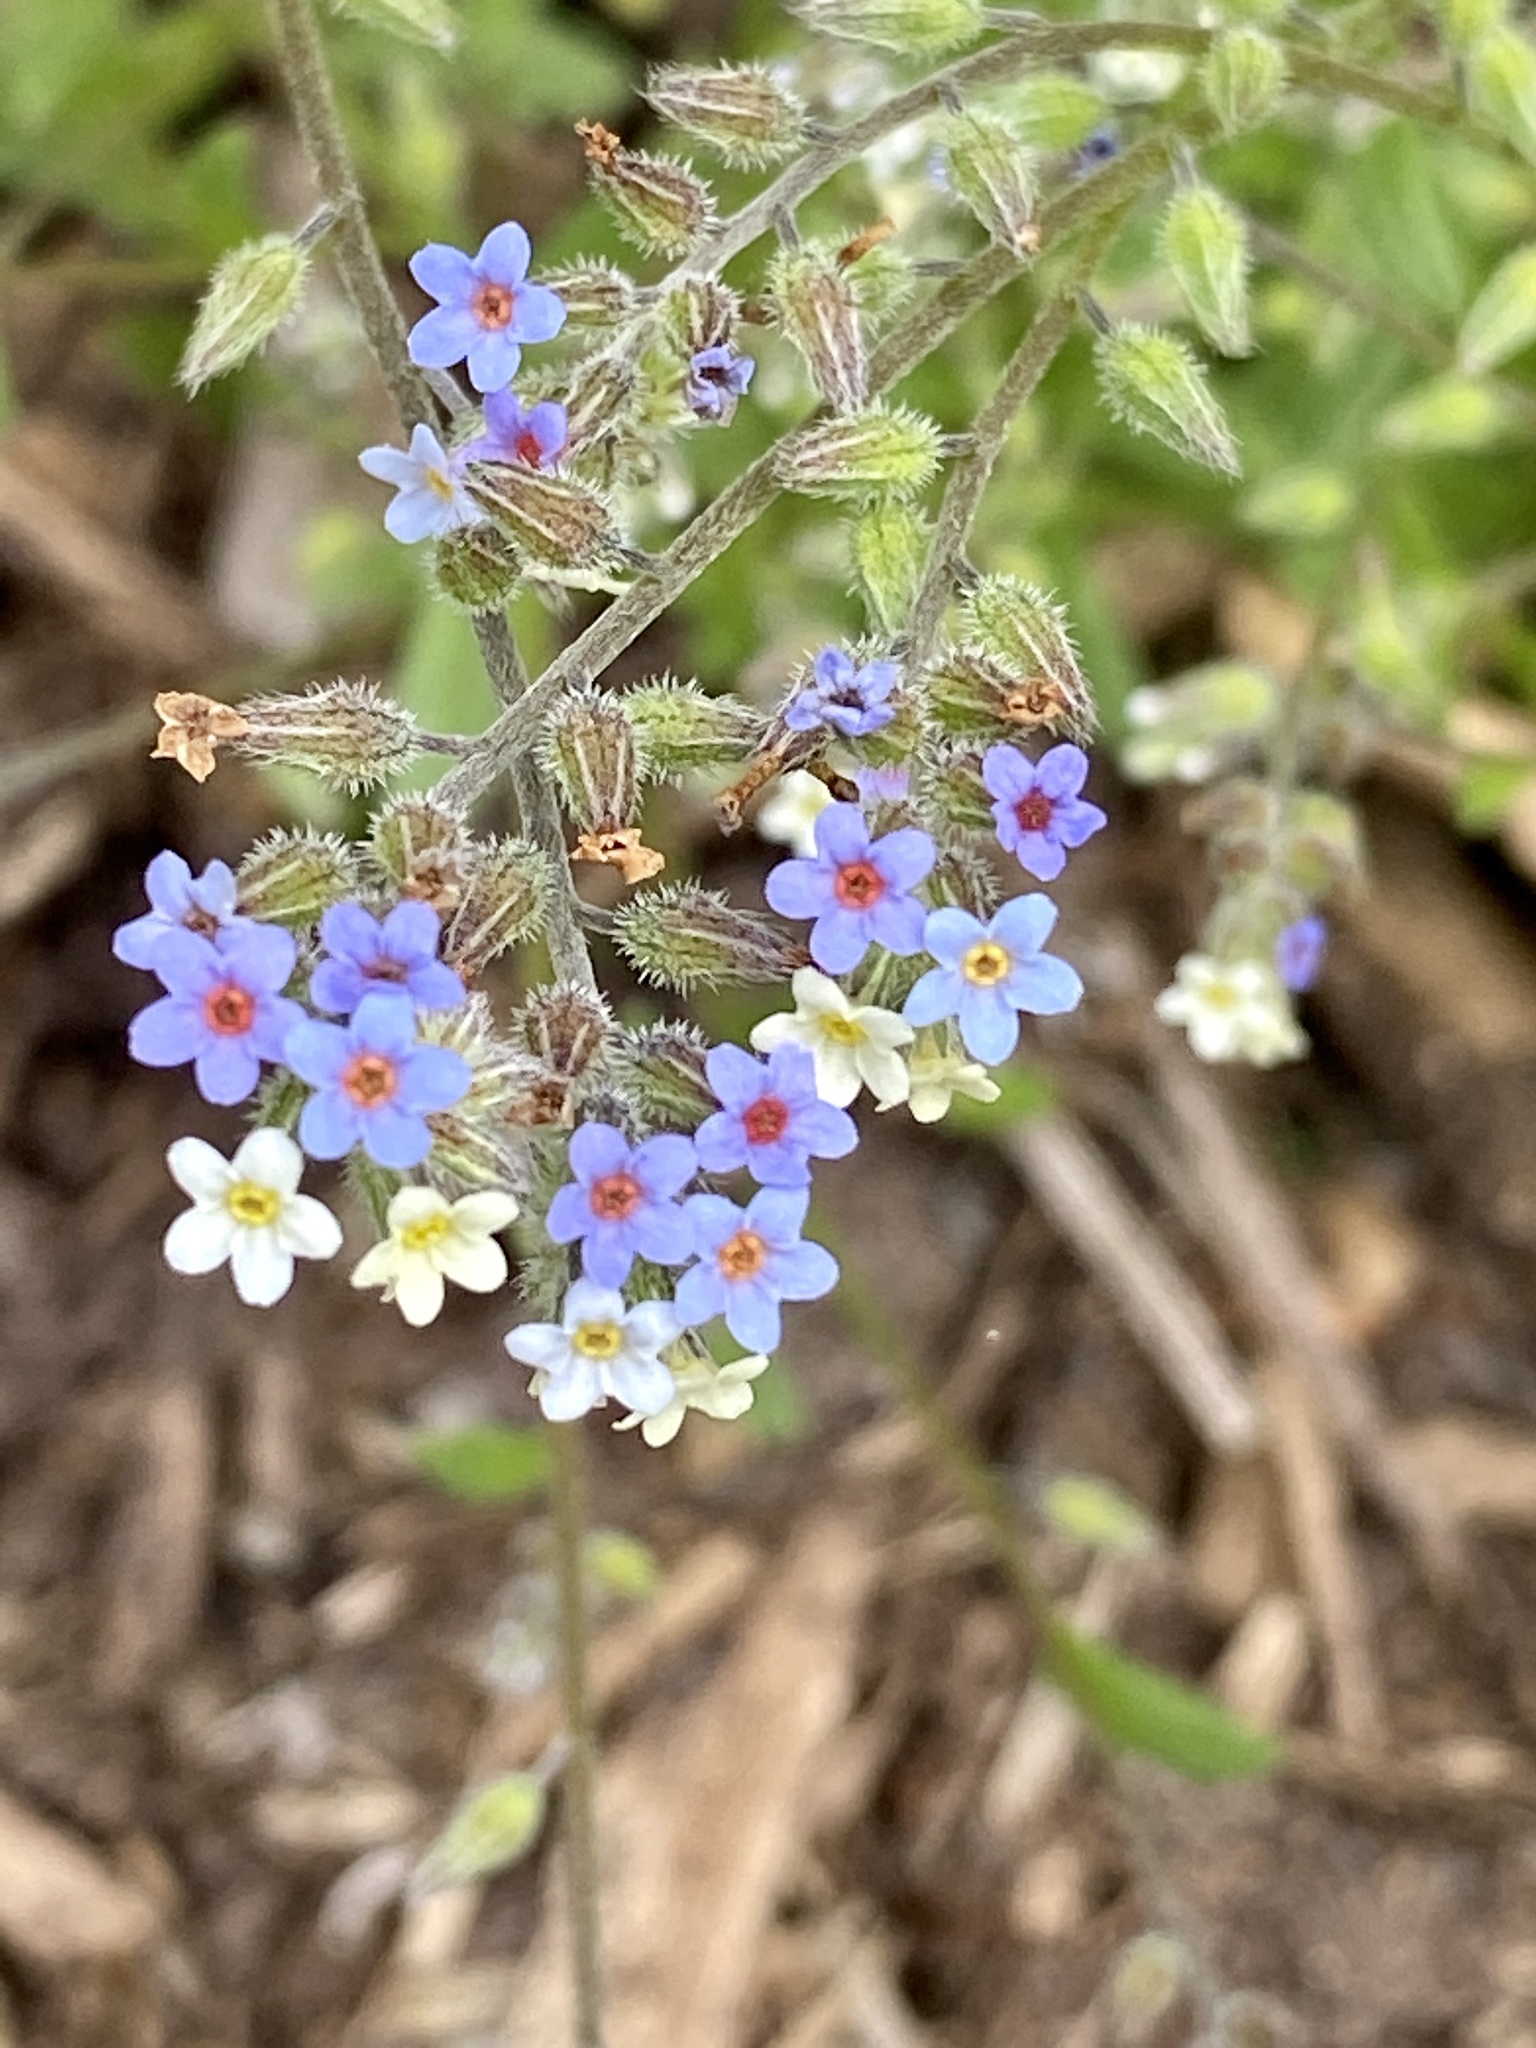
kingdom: Plantae
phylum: Tracheophyta
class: Magnoliopsida
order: Boraginales
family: Boraginaceae
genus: Myosotis
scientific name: Myosotis discolor
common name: Changing forget-me-not
